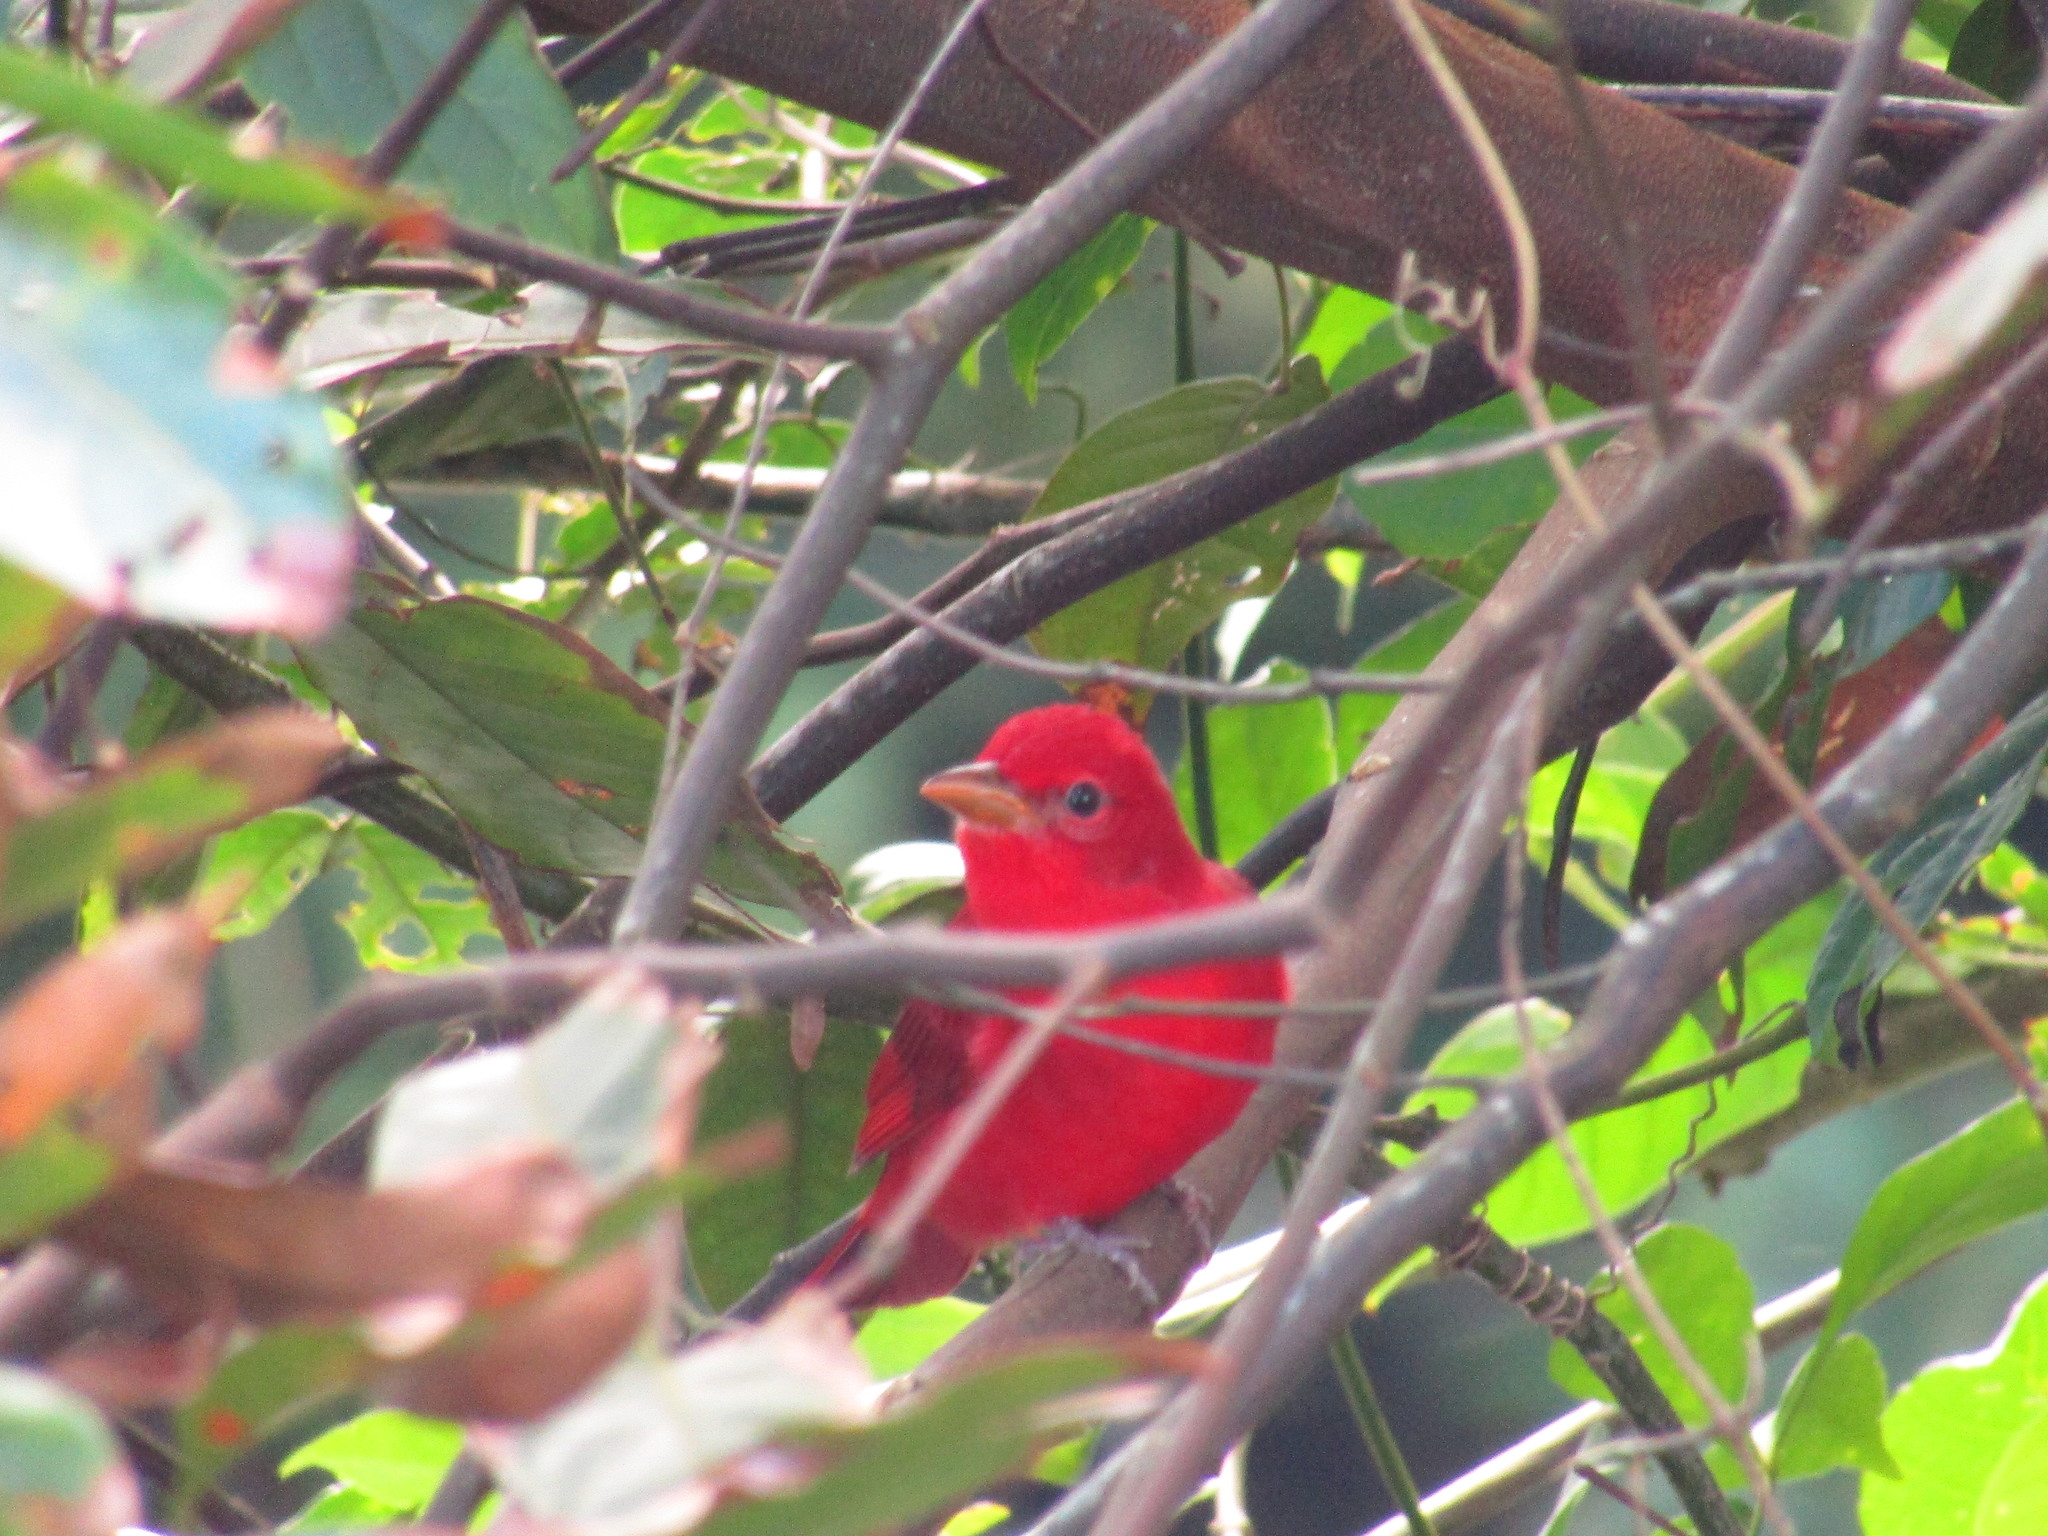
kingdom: Animalia
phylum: Chordata
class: Aves
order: Passeriformes
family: Cardinalidae
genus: Piranga
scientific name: Piranga rubra
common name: Summer tanager
